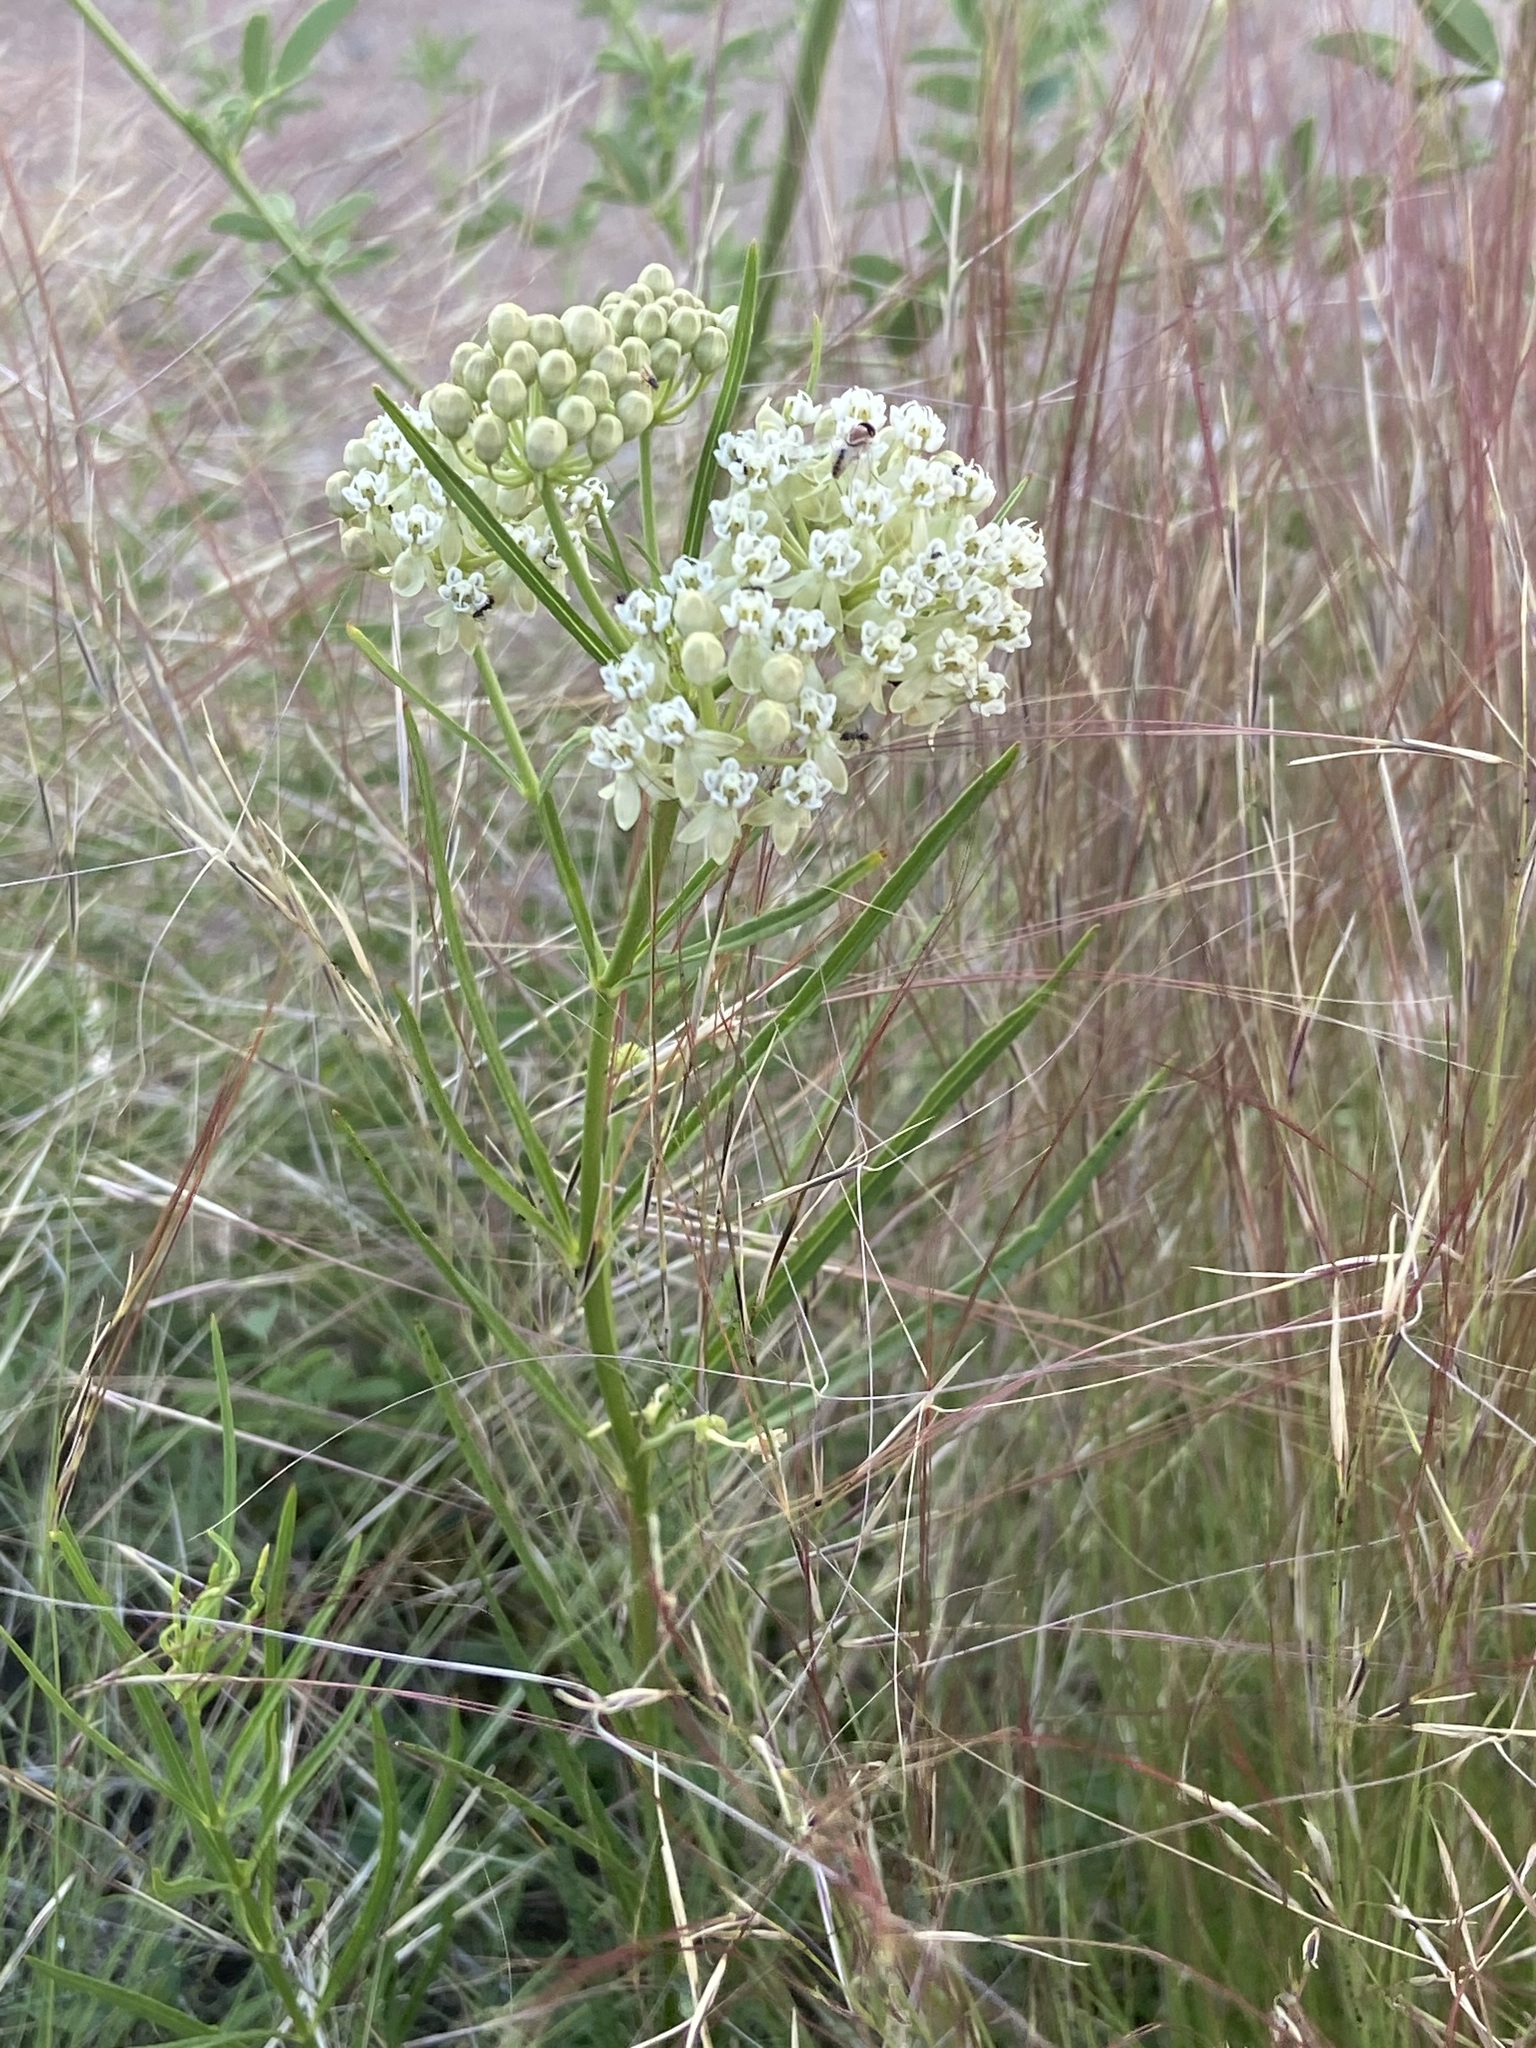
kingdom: Plantae
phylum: Tracheophyta
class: Magnoliopsida
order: Gentianales
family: Apocynaceae
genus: Asclepias
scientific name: Asclepias subverticillata
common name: Horsetail milkweed
